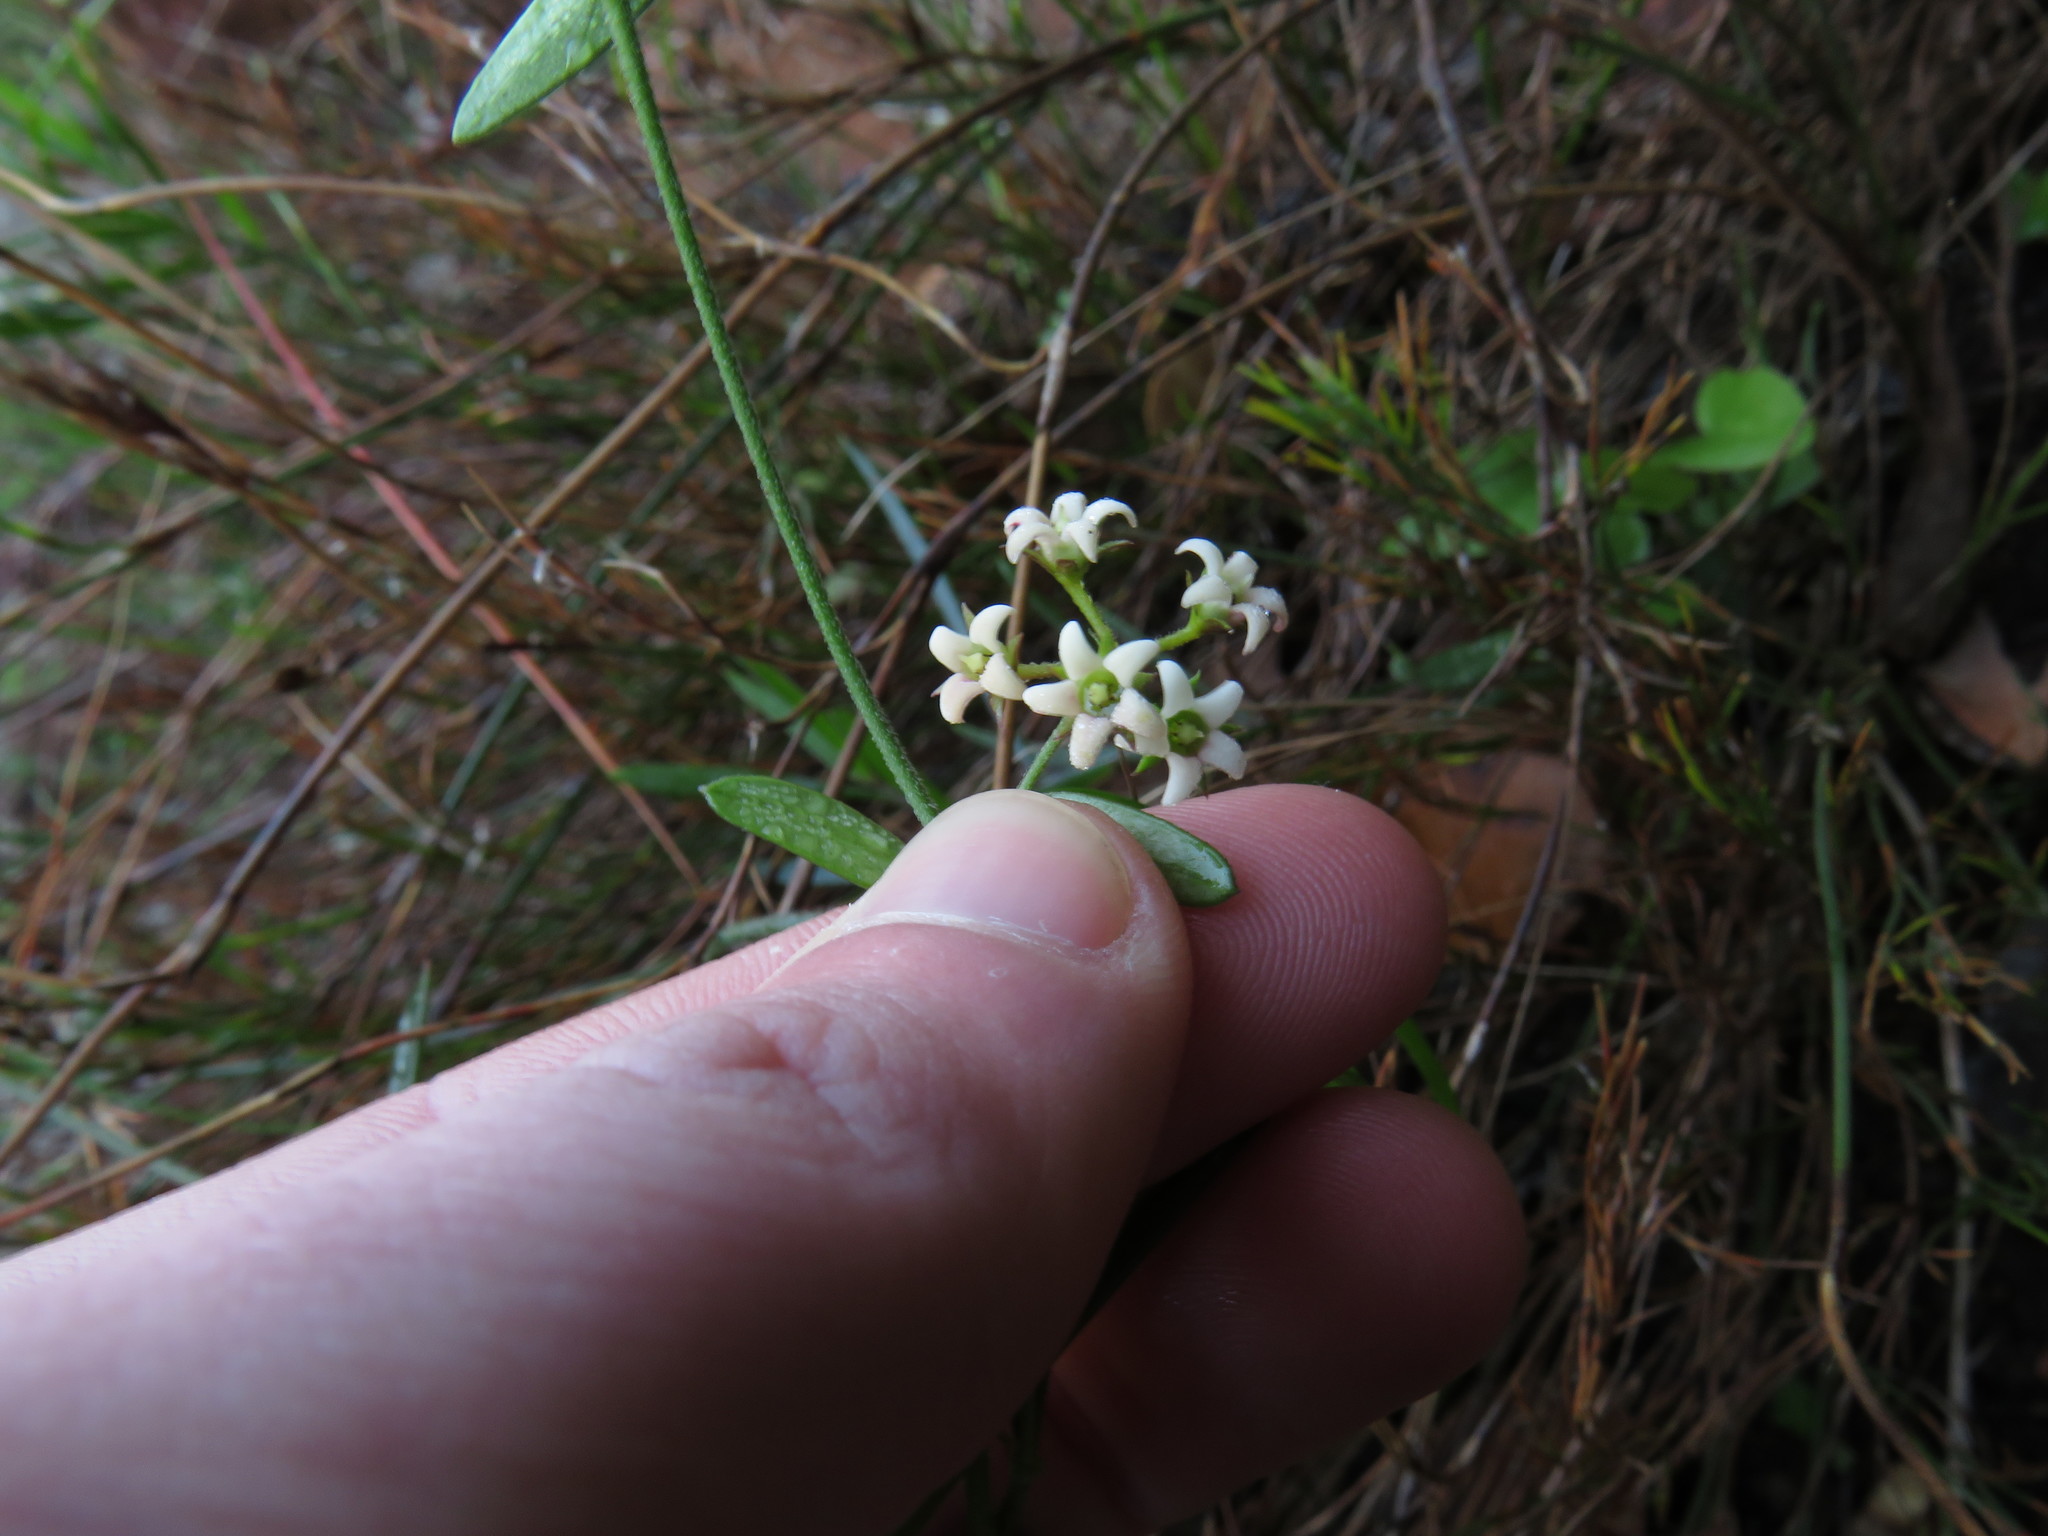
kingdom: Plantae
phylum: Tracheophyta
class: Magnoliopsida
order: Gentianales
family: Apocynaceae
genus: Astephanus
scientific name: Astephanus triflorus
